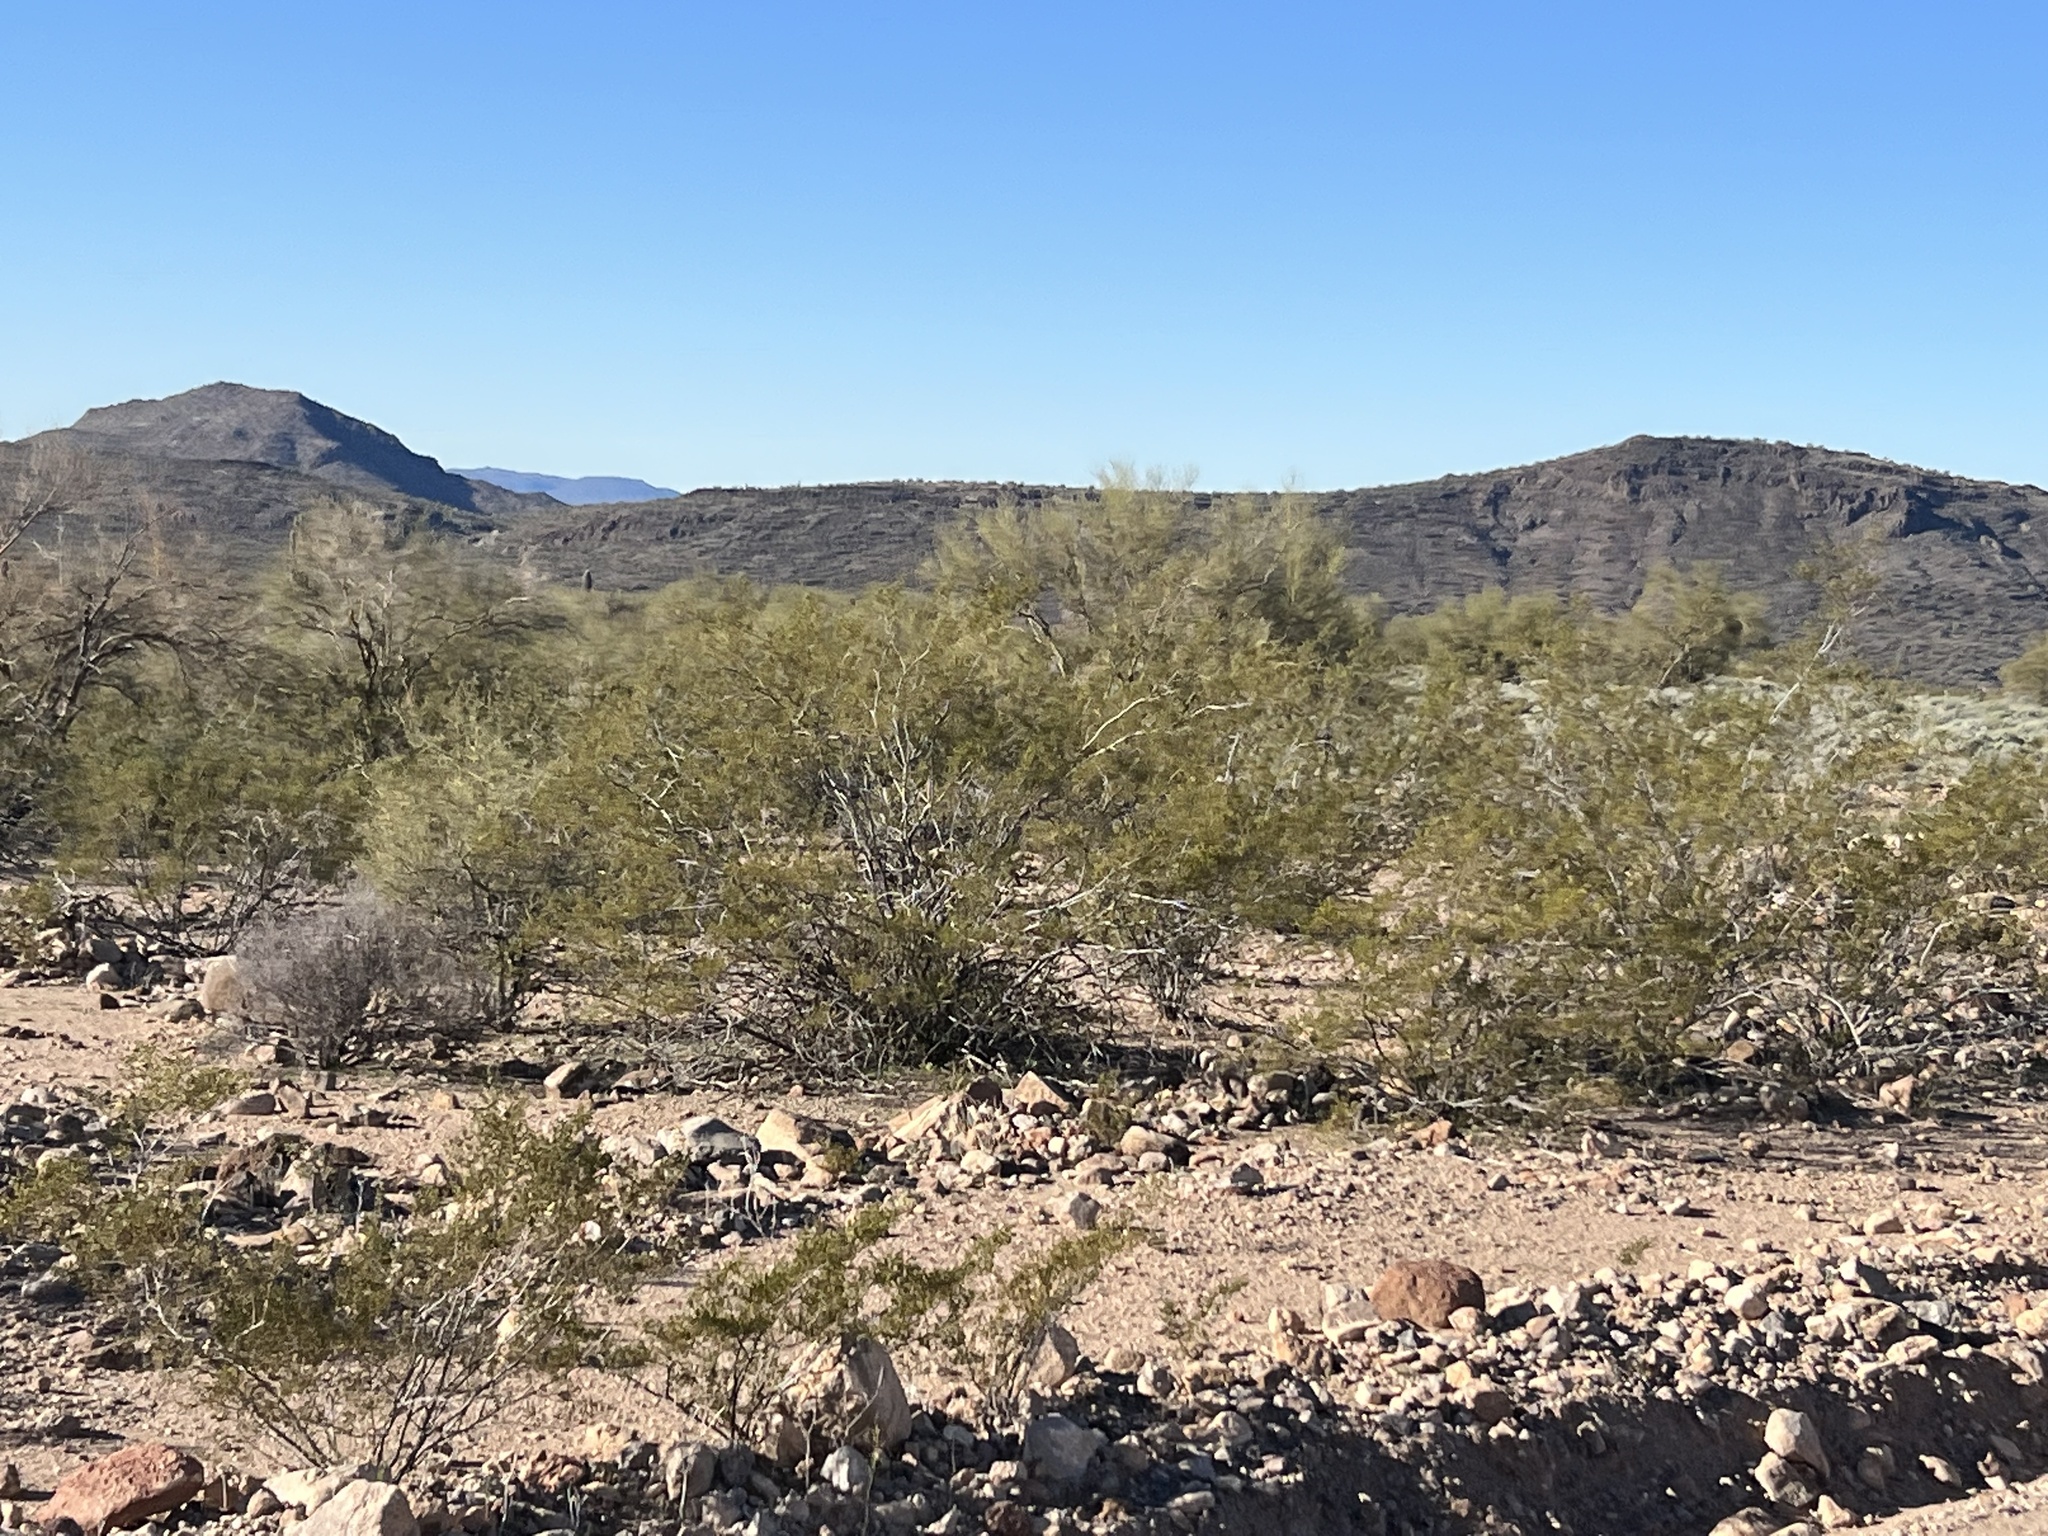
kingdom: Plantae
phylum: Tracheophyta
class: Magnoliopsida
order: Zygophyllales
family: Zygophyllaceae
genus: Larrea
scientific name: Larrea tridentata
